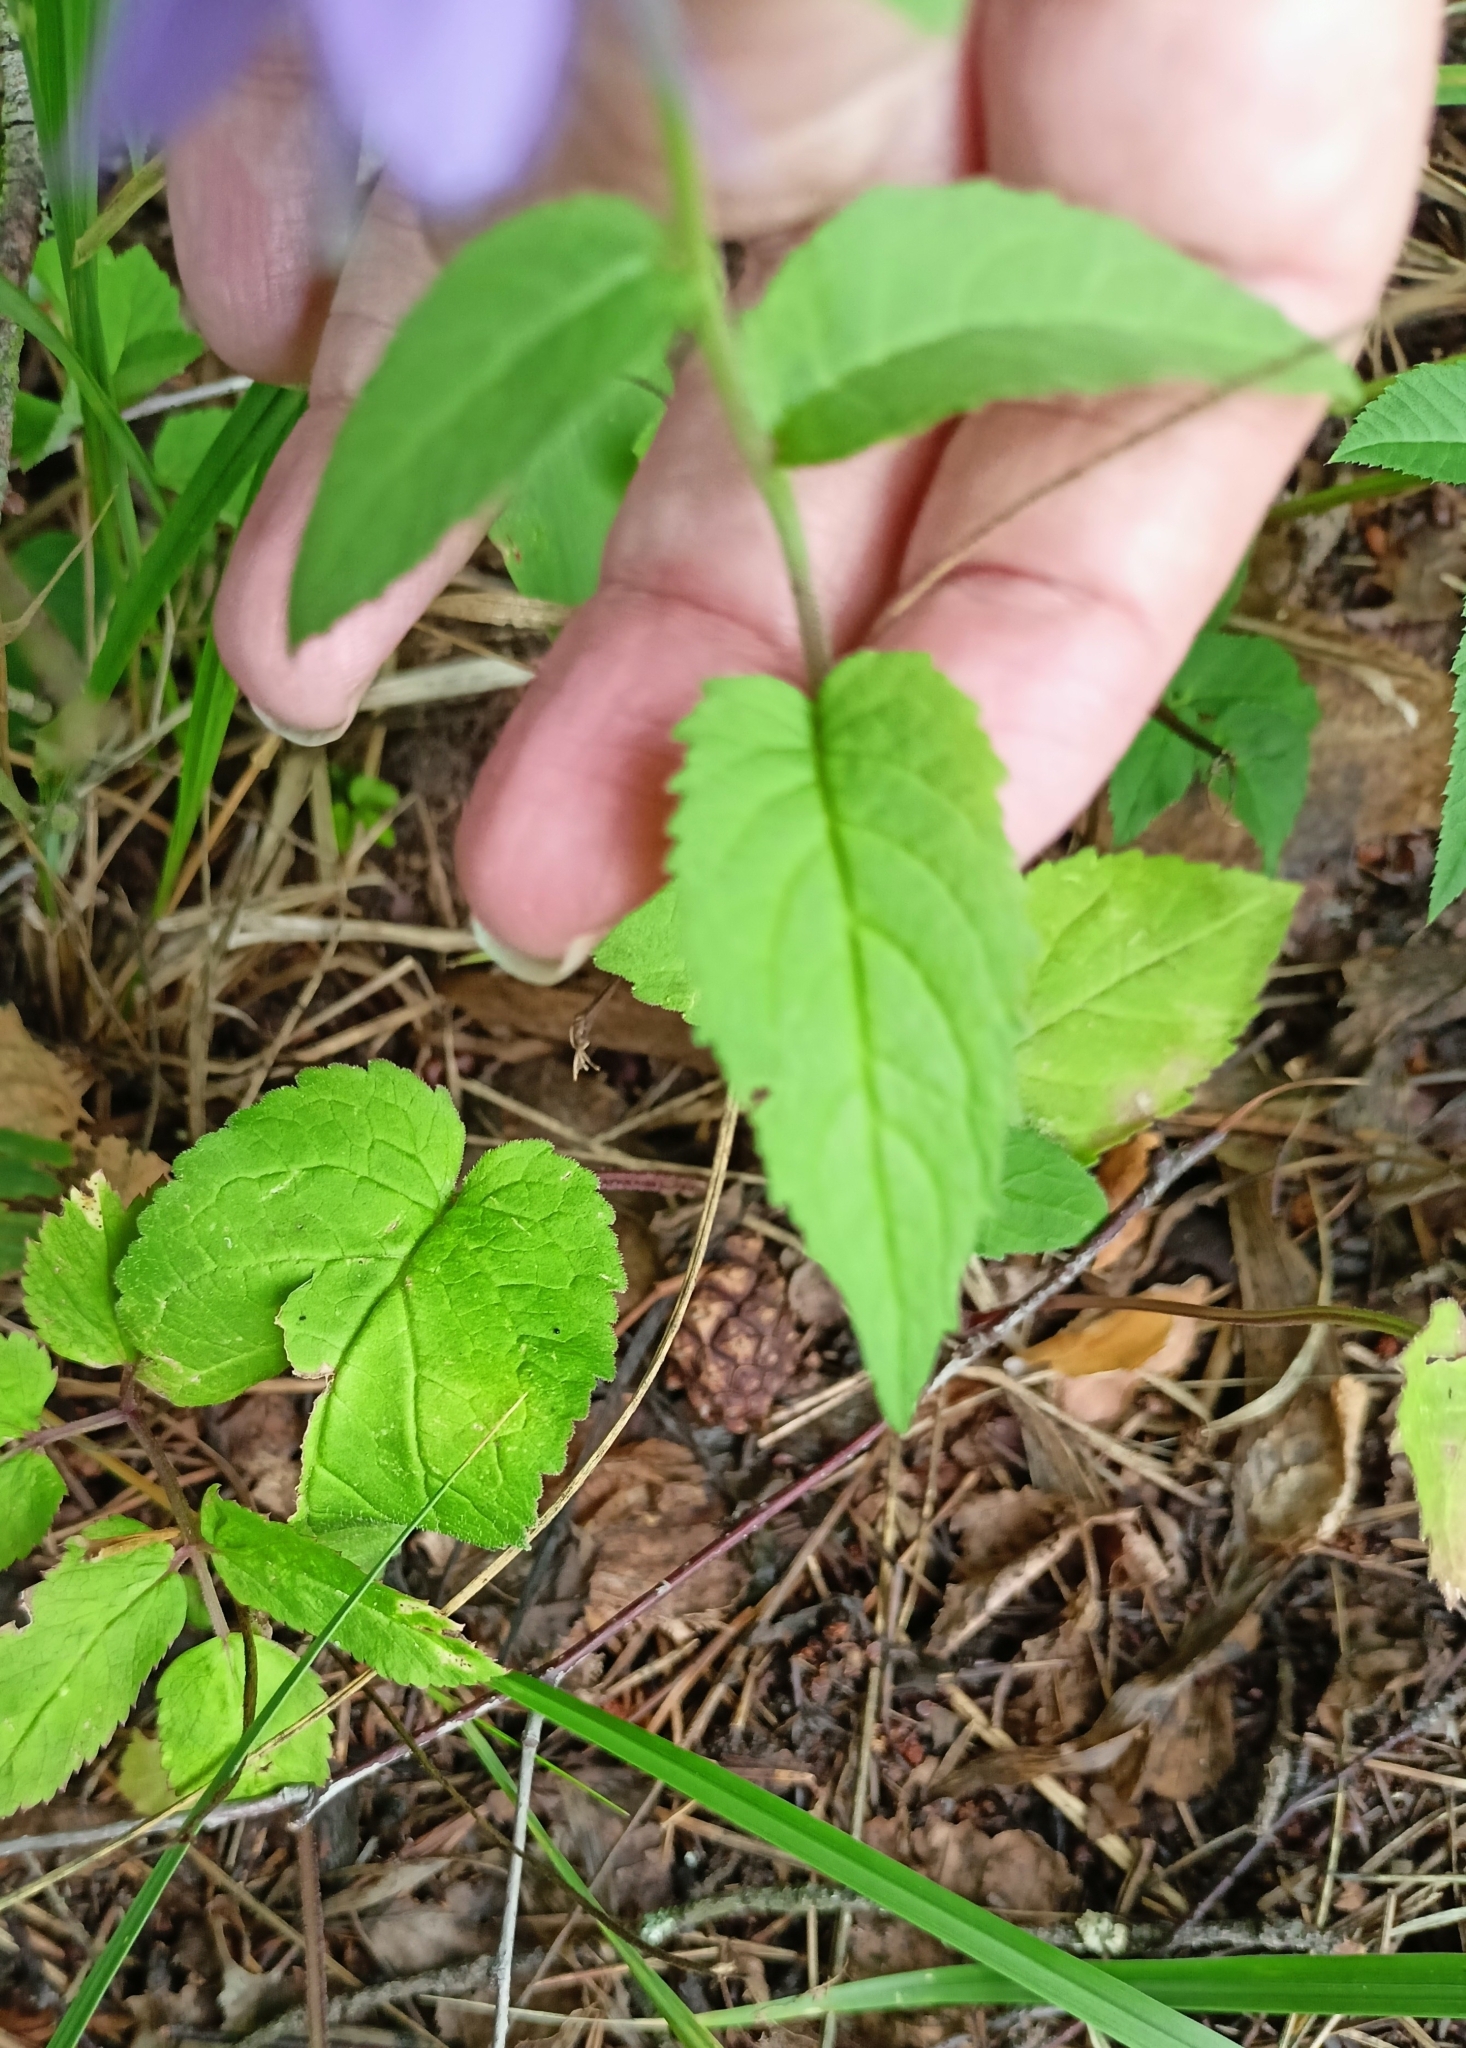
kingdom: Plantae
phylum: Tracheophyta
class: Magnoliopsida
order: Asterales
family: Campanulaceae
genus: Campanula
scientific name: Campanula rapunculoides
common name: Creeping bellflower
